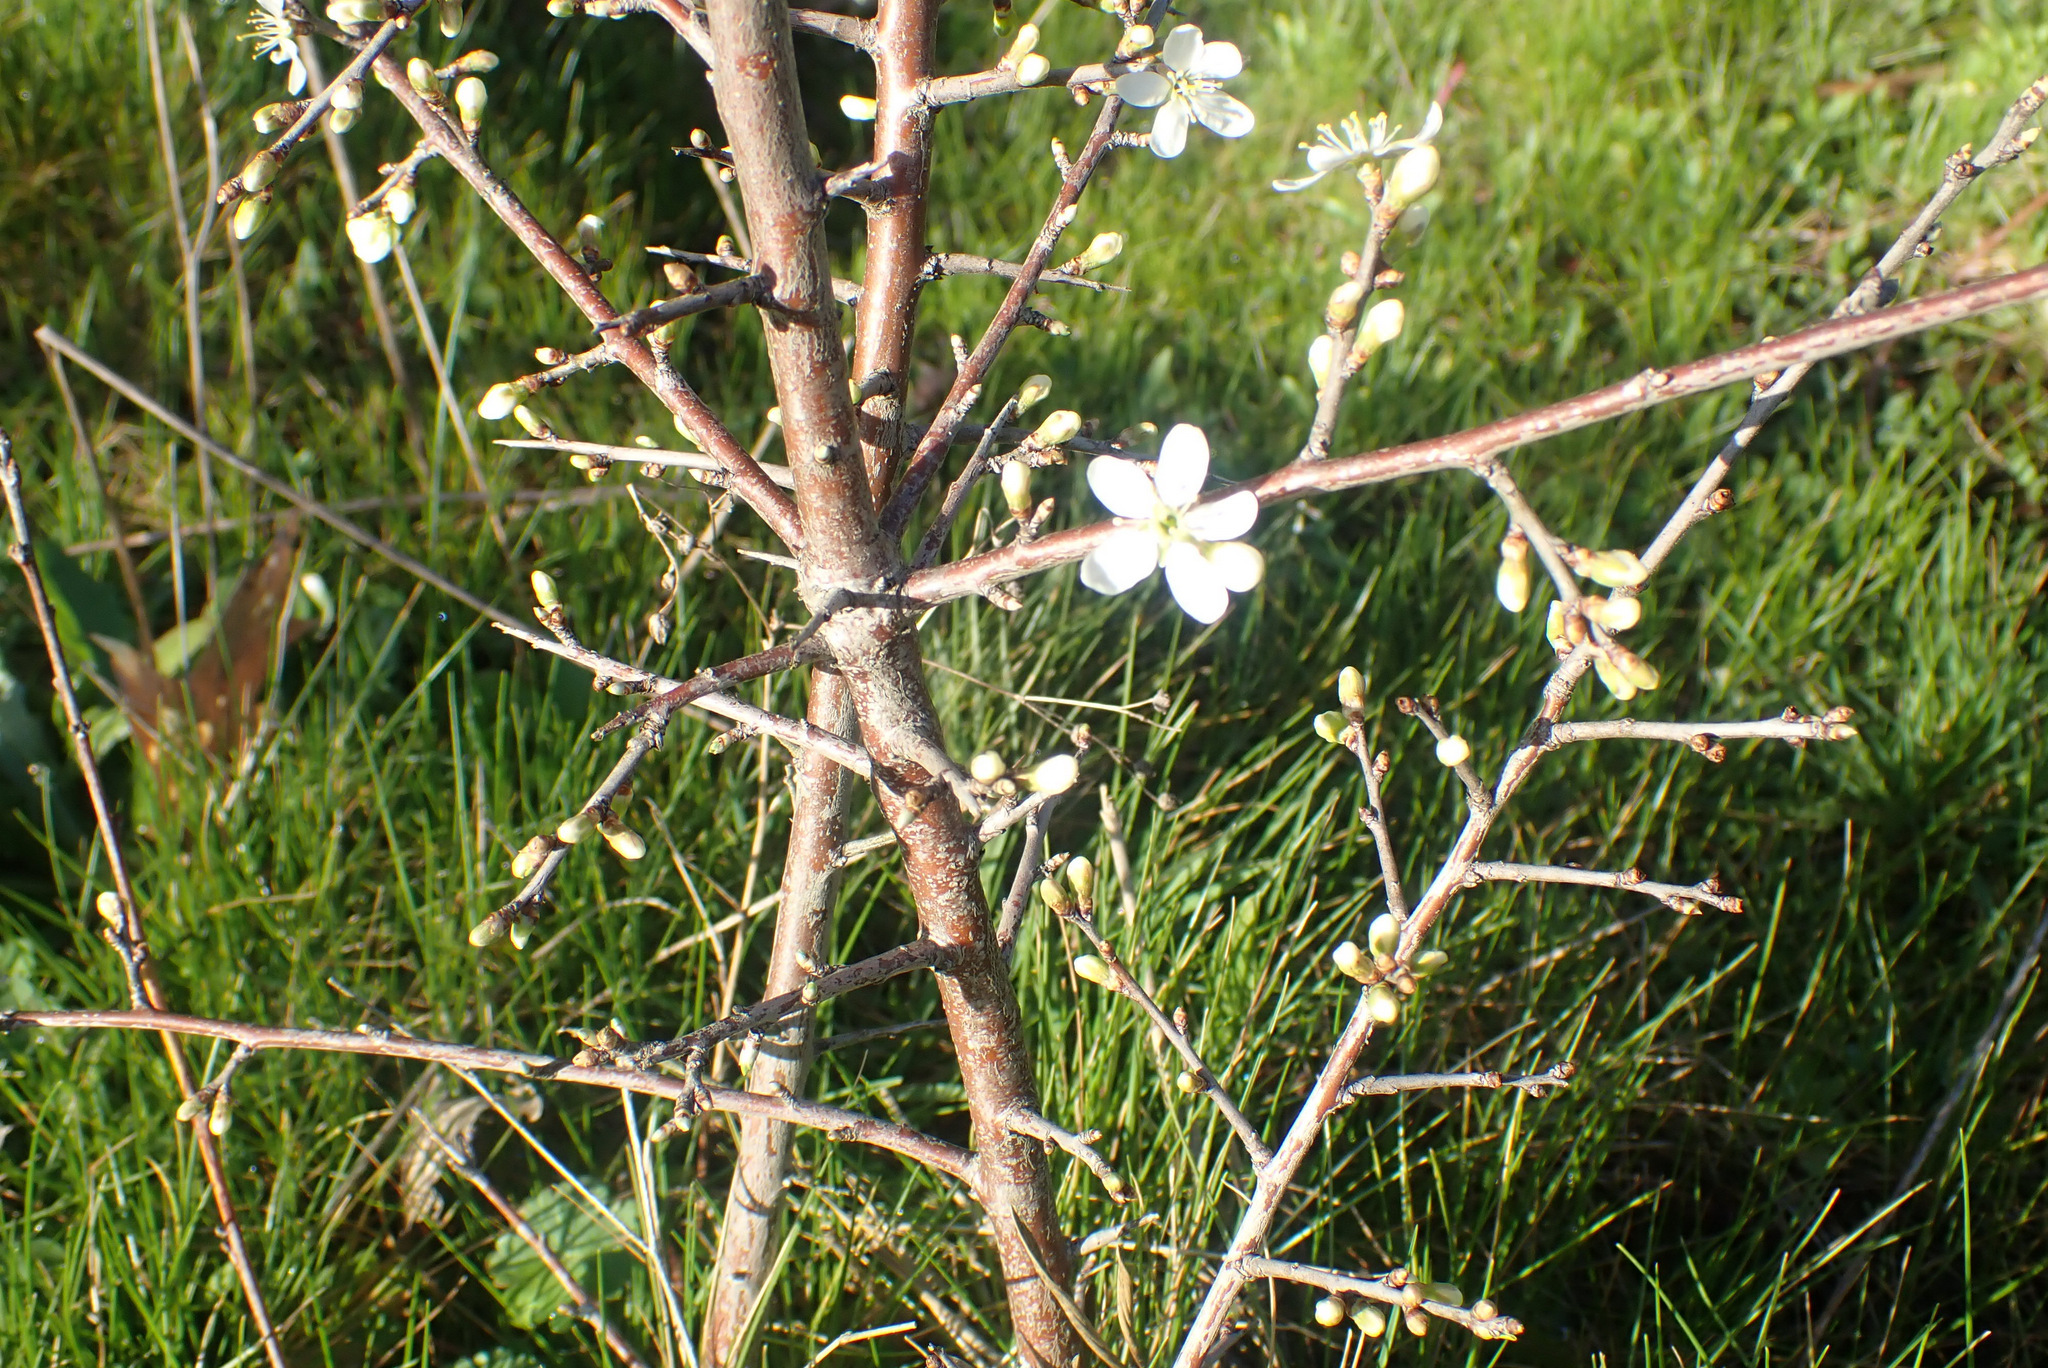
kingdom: Plantae
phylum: Tracheophyta
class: Magnoliopsida
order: Rosales
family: Rosaceae
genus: Prunus
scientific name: Prunus spinosa
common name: Blackthorn
